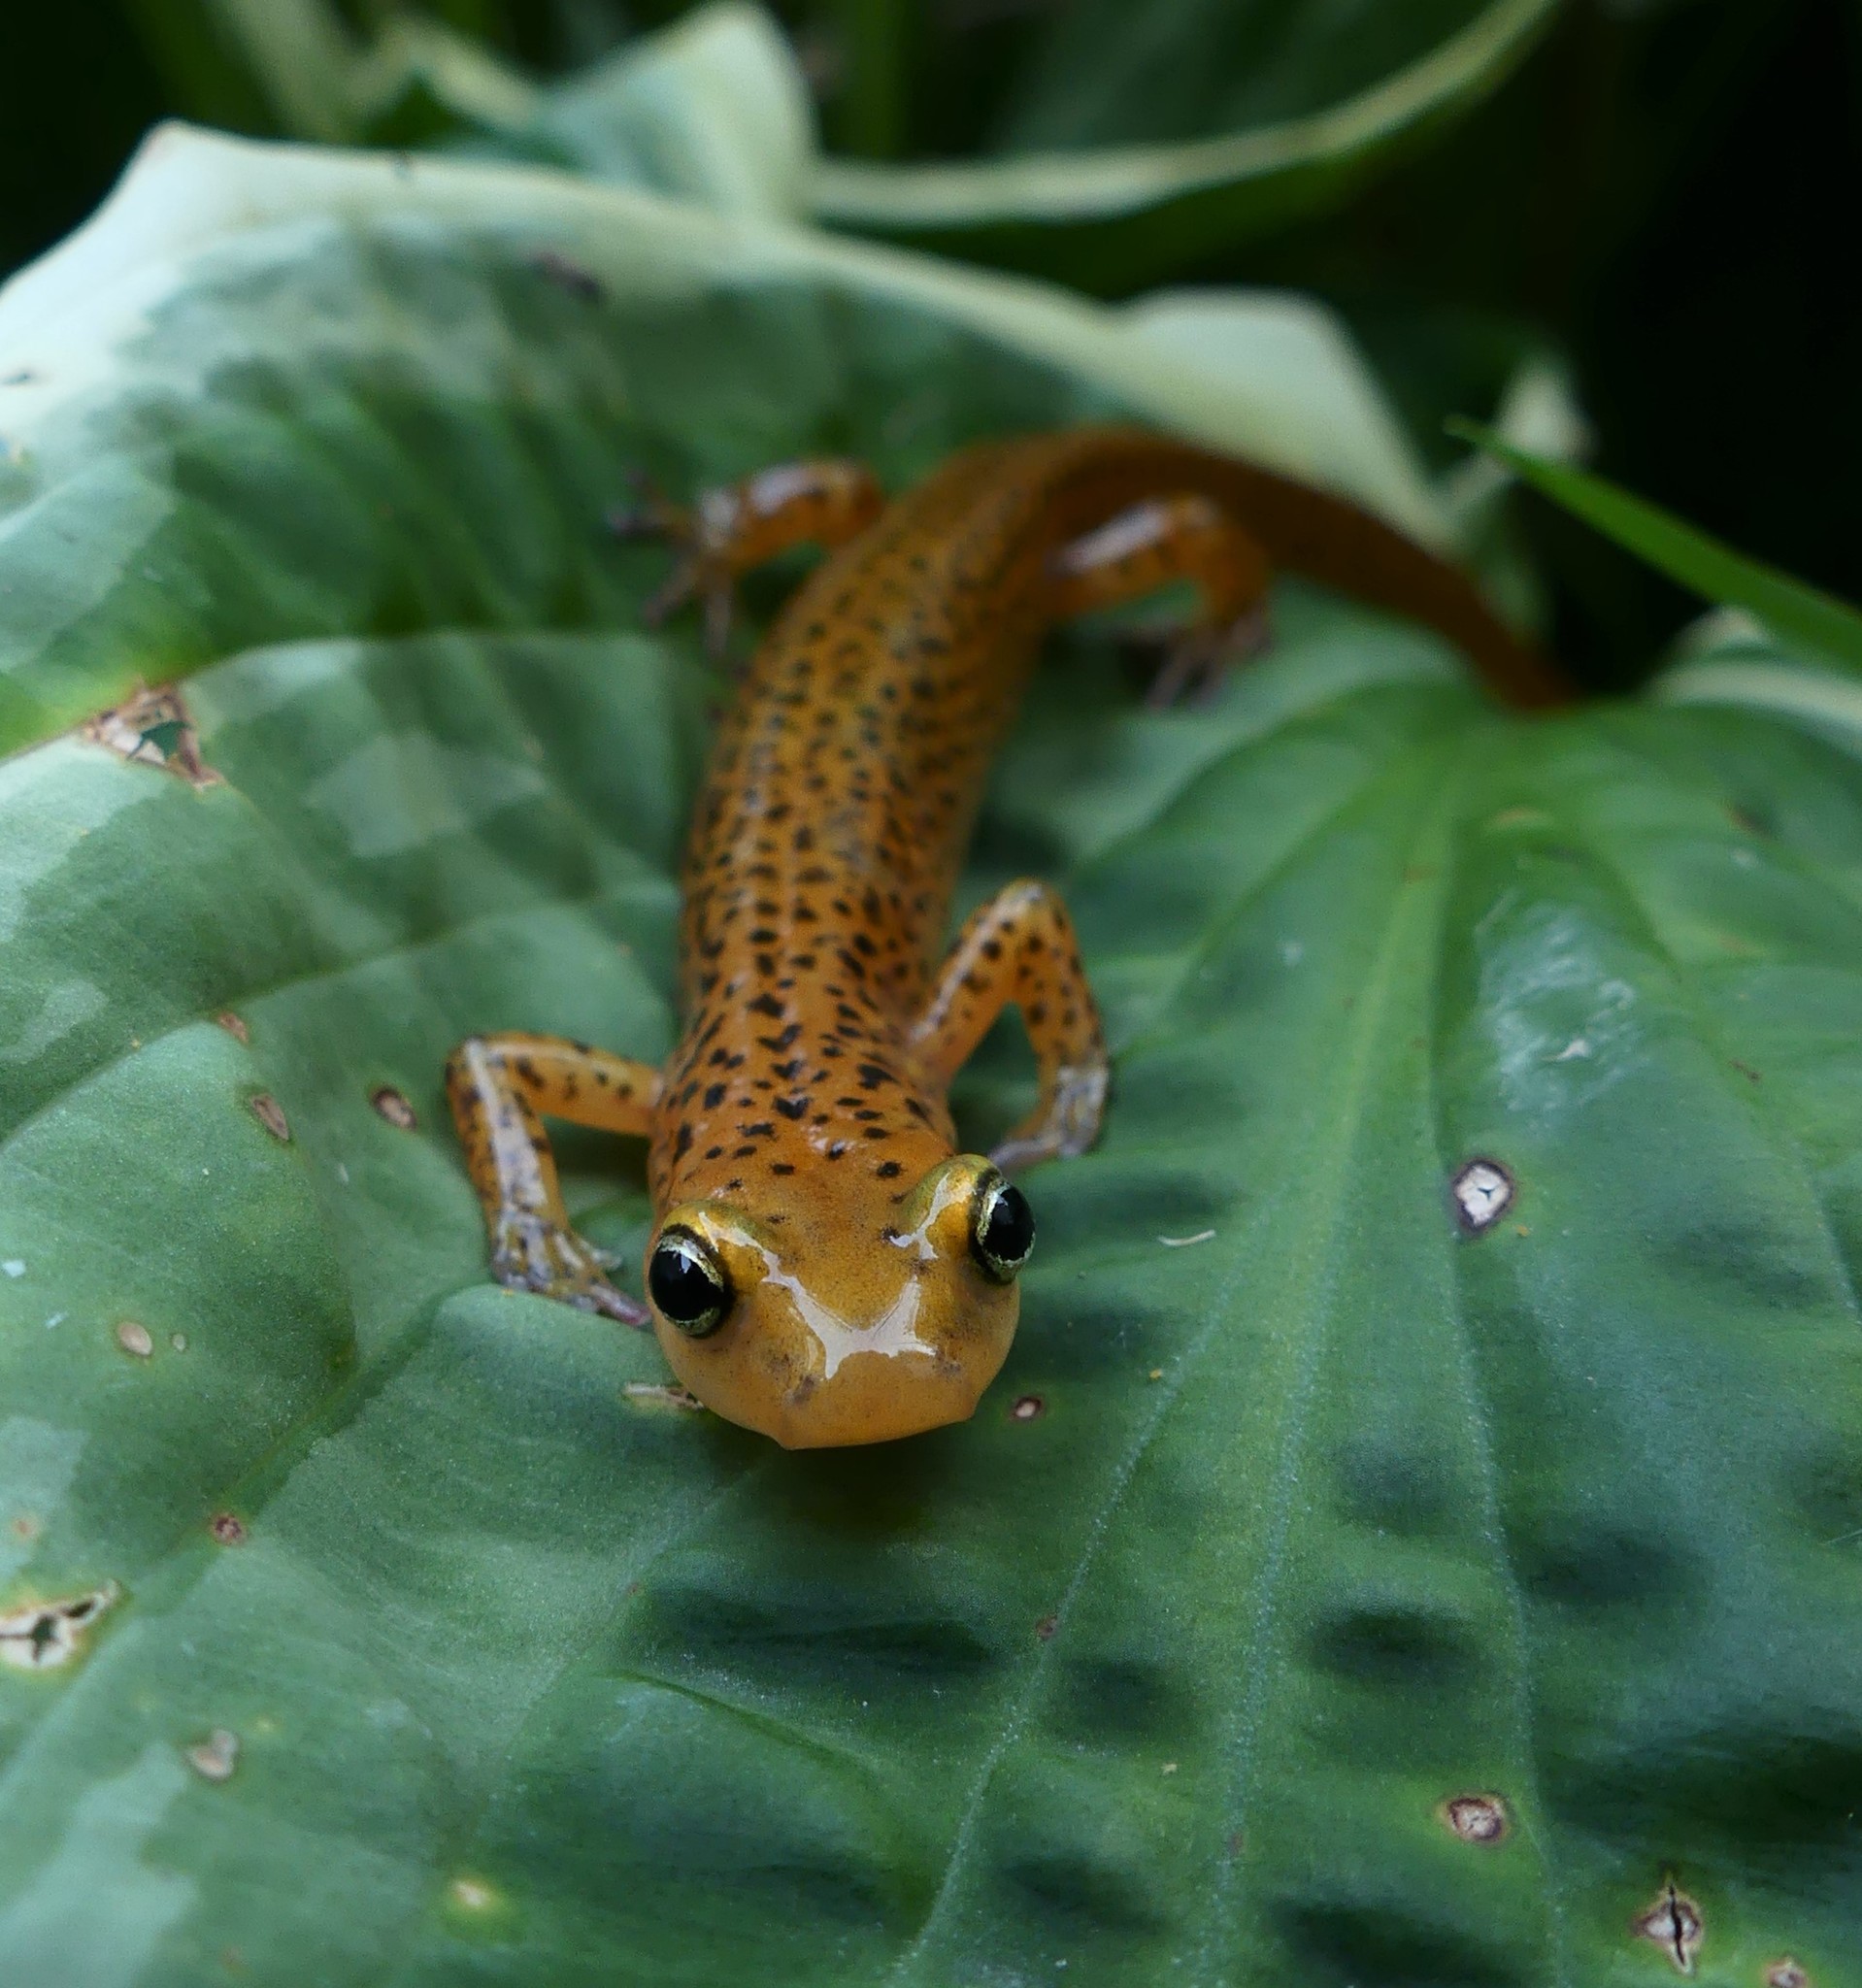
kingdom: Animalia
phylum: Chordata
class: Amphibia
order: Caudata
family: Plethodontidae
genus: Eurycea
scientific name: Eurycea longicauda
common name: Long-tailed salamander
